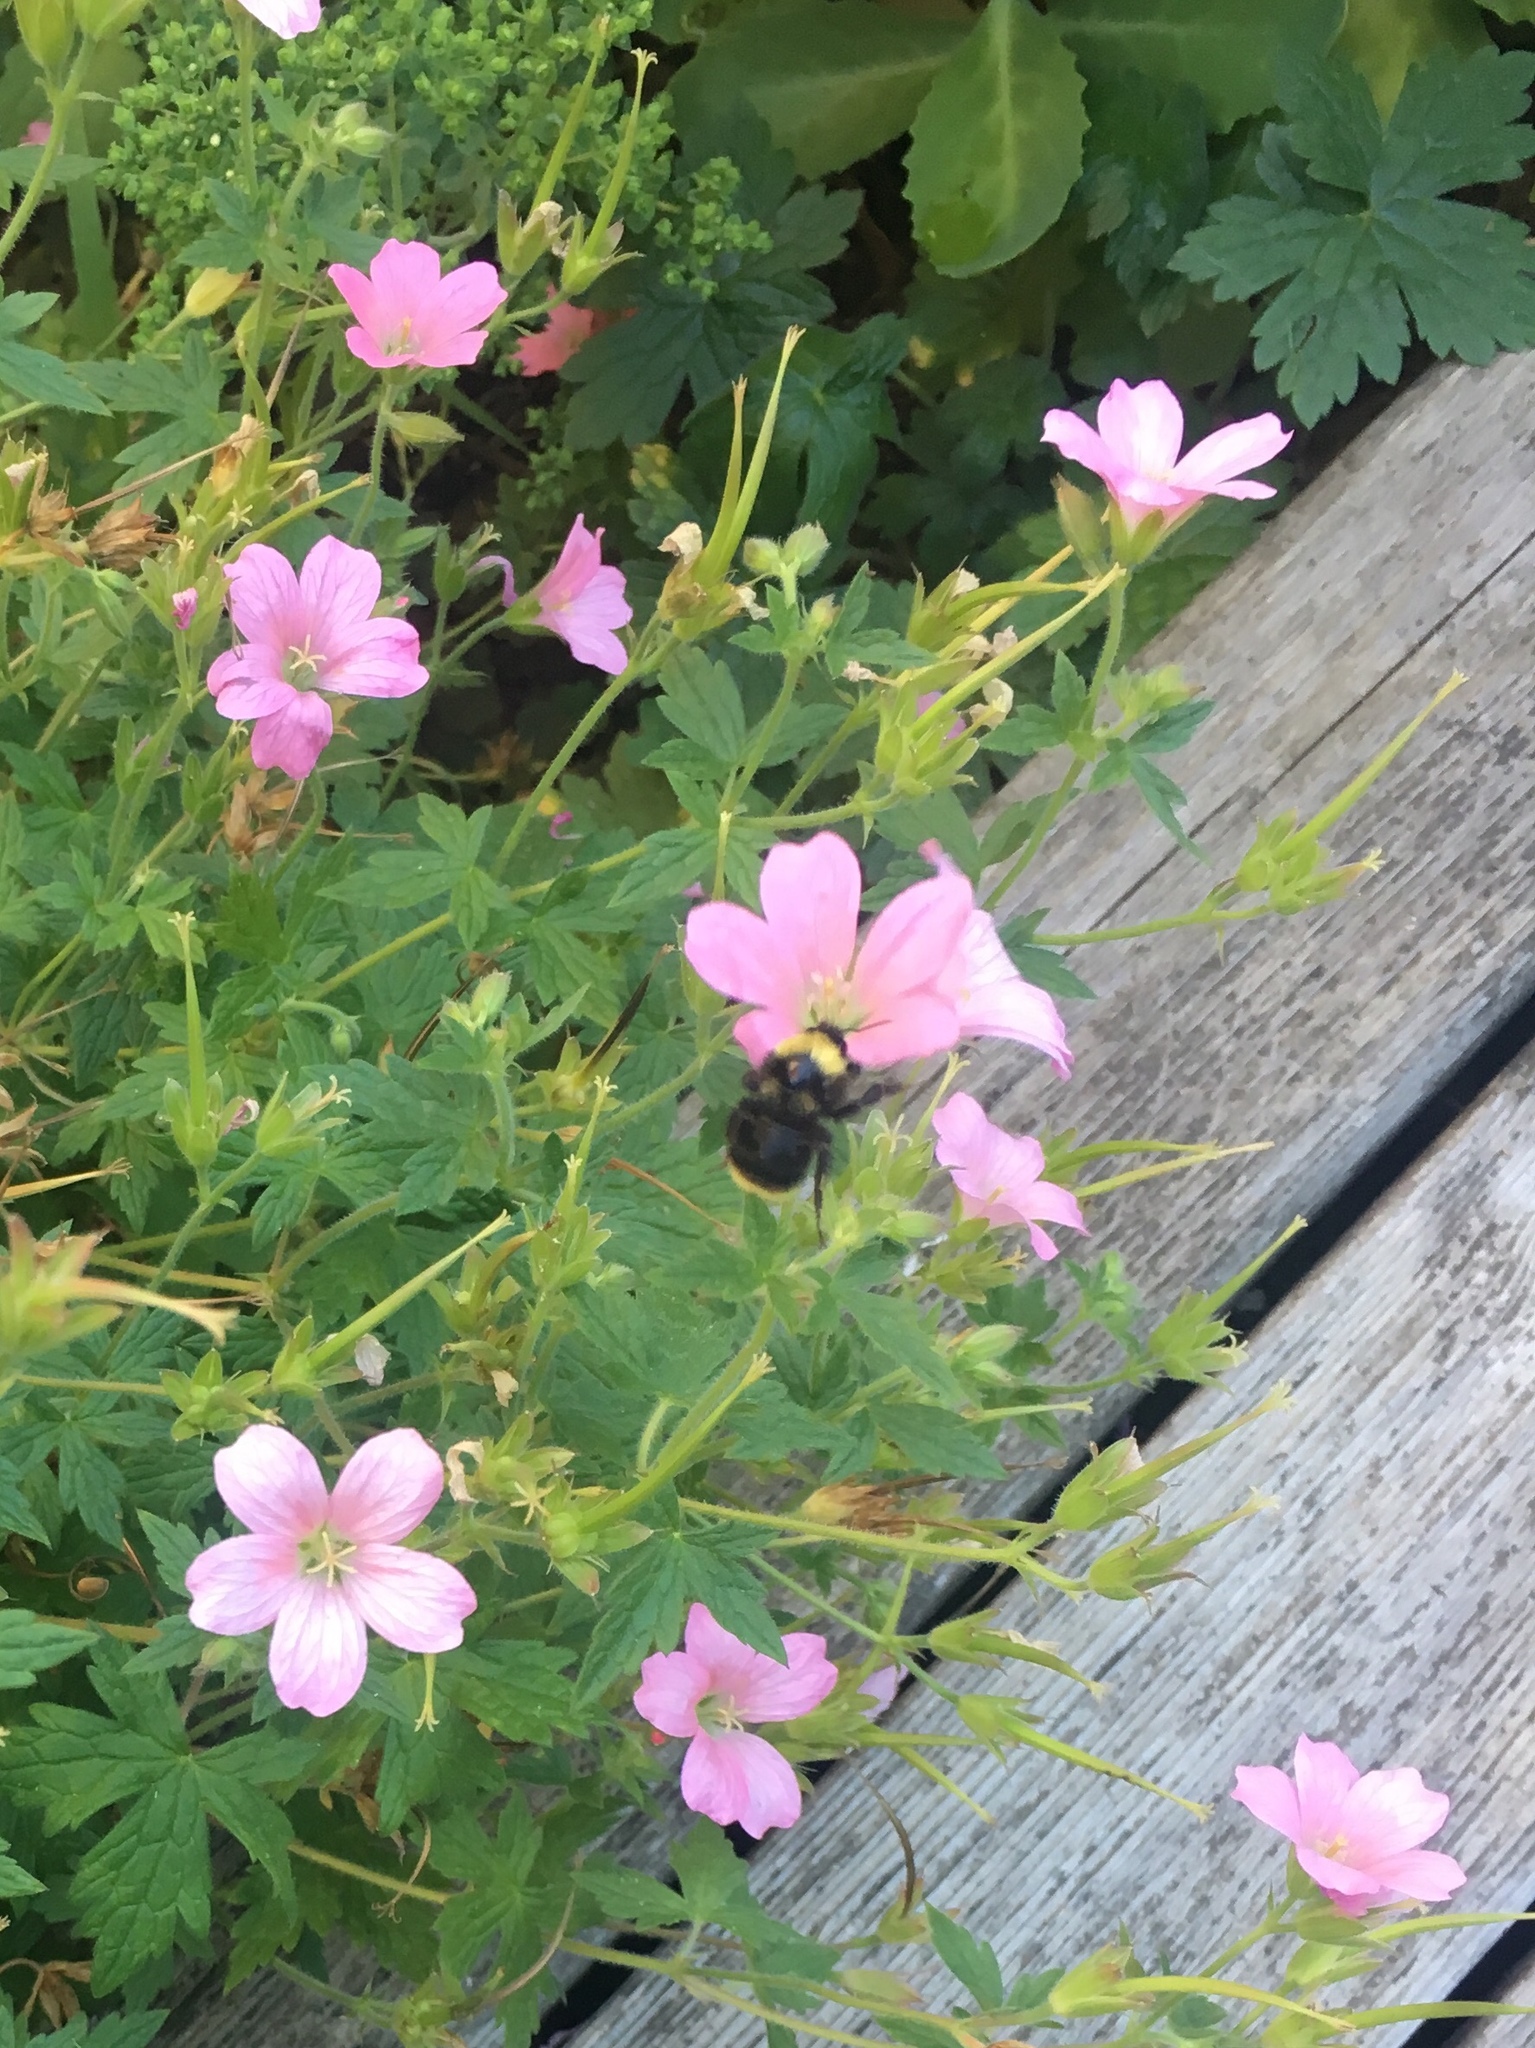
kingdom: Animalia
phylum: Arthropoda
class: Insecta
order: Hymenoptera
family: Apidae
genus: Bombus
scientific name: Bombus californicus
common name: California bumble bee
